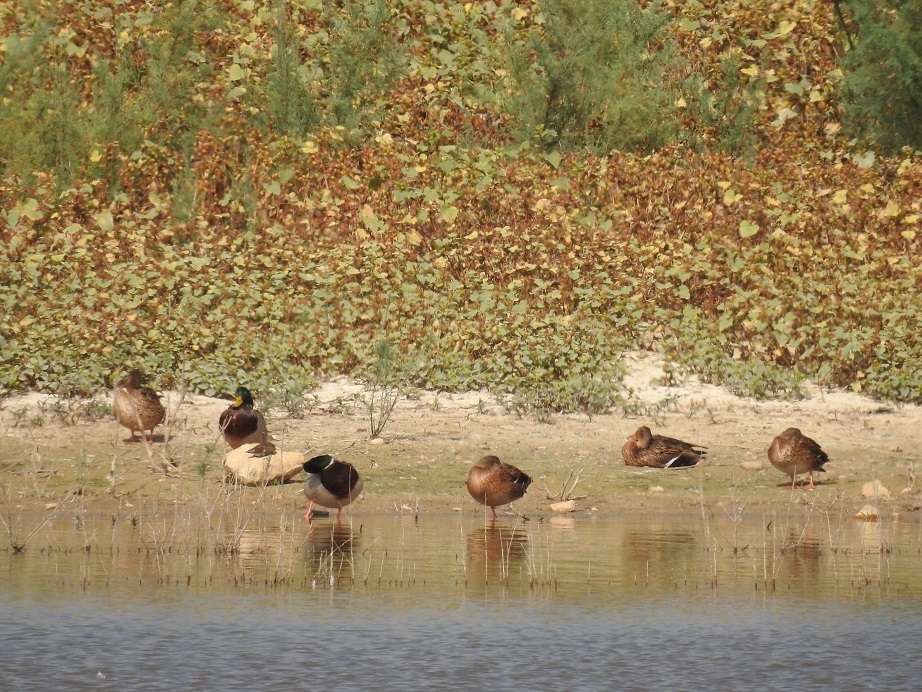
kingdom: Animalia
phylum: Chordata
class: Aves
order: Anseriformes
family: Anatidae
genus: Anas
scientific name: Anas platyrhynchos
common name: Mallard
